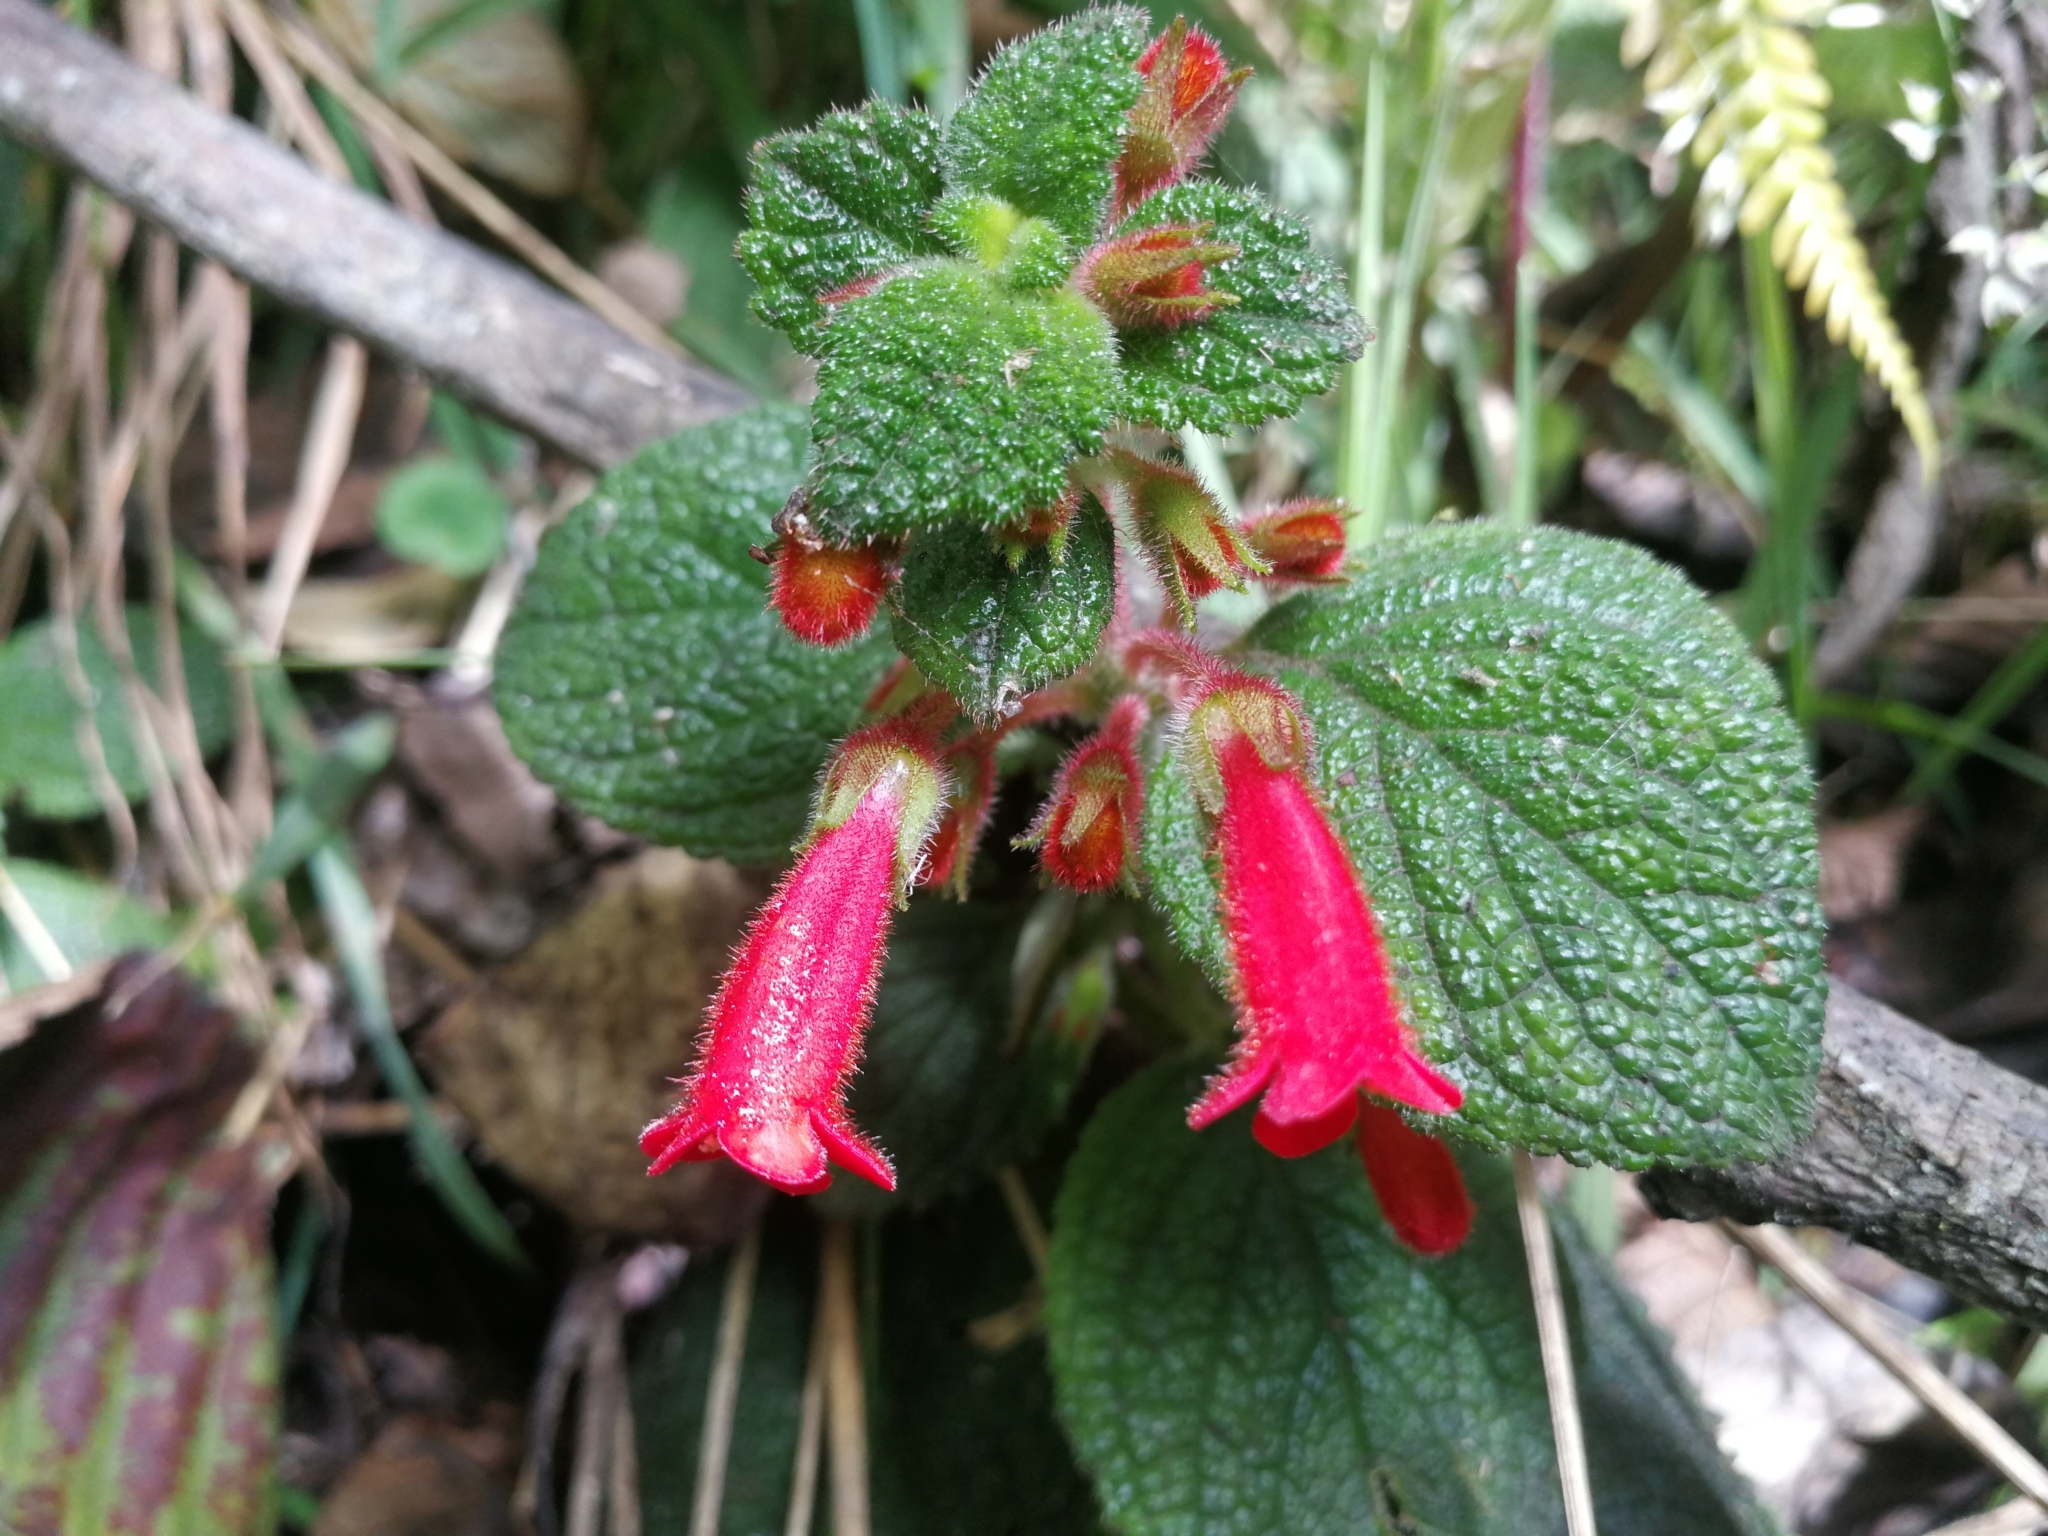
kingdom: Plantae
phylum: Tracheophyta
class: Magnoliopsida
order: Lamiales
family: Gesneriaceae
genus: Heppiella
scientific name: Heppiella ulmifolia
